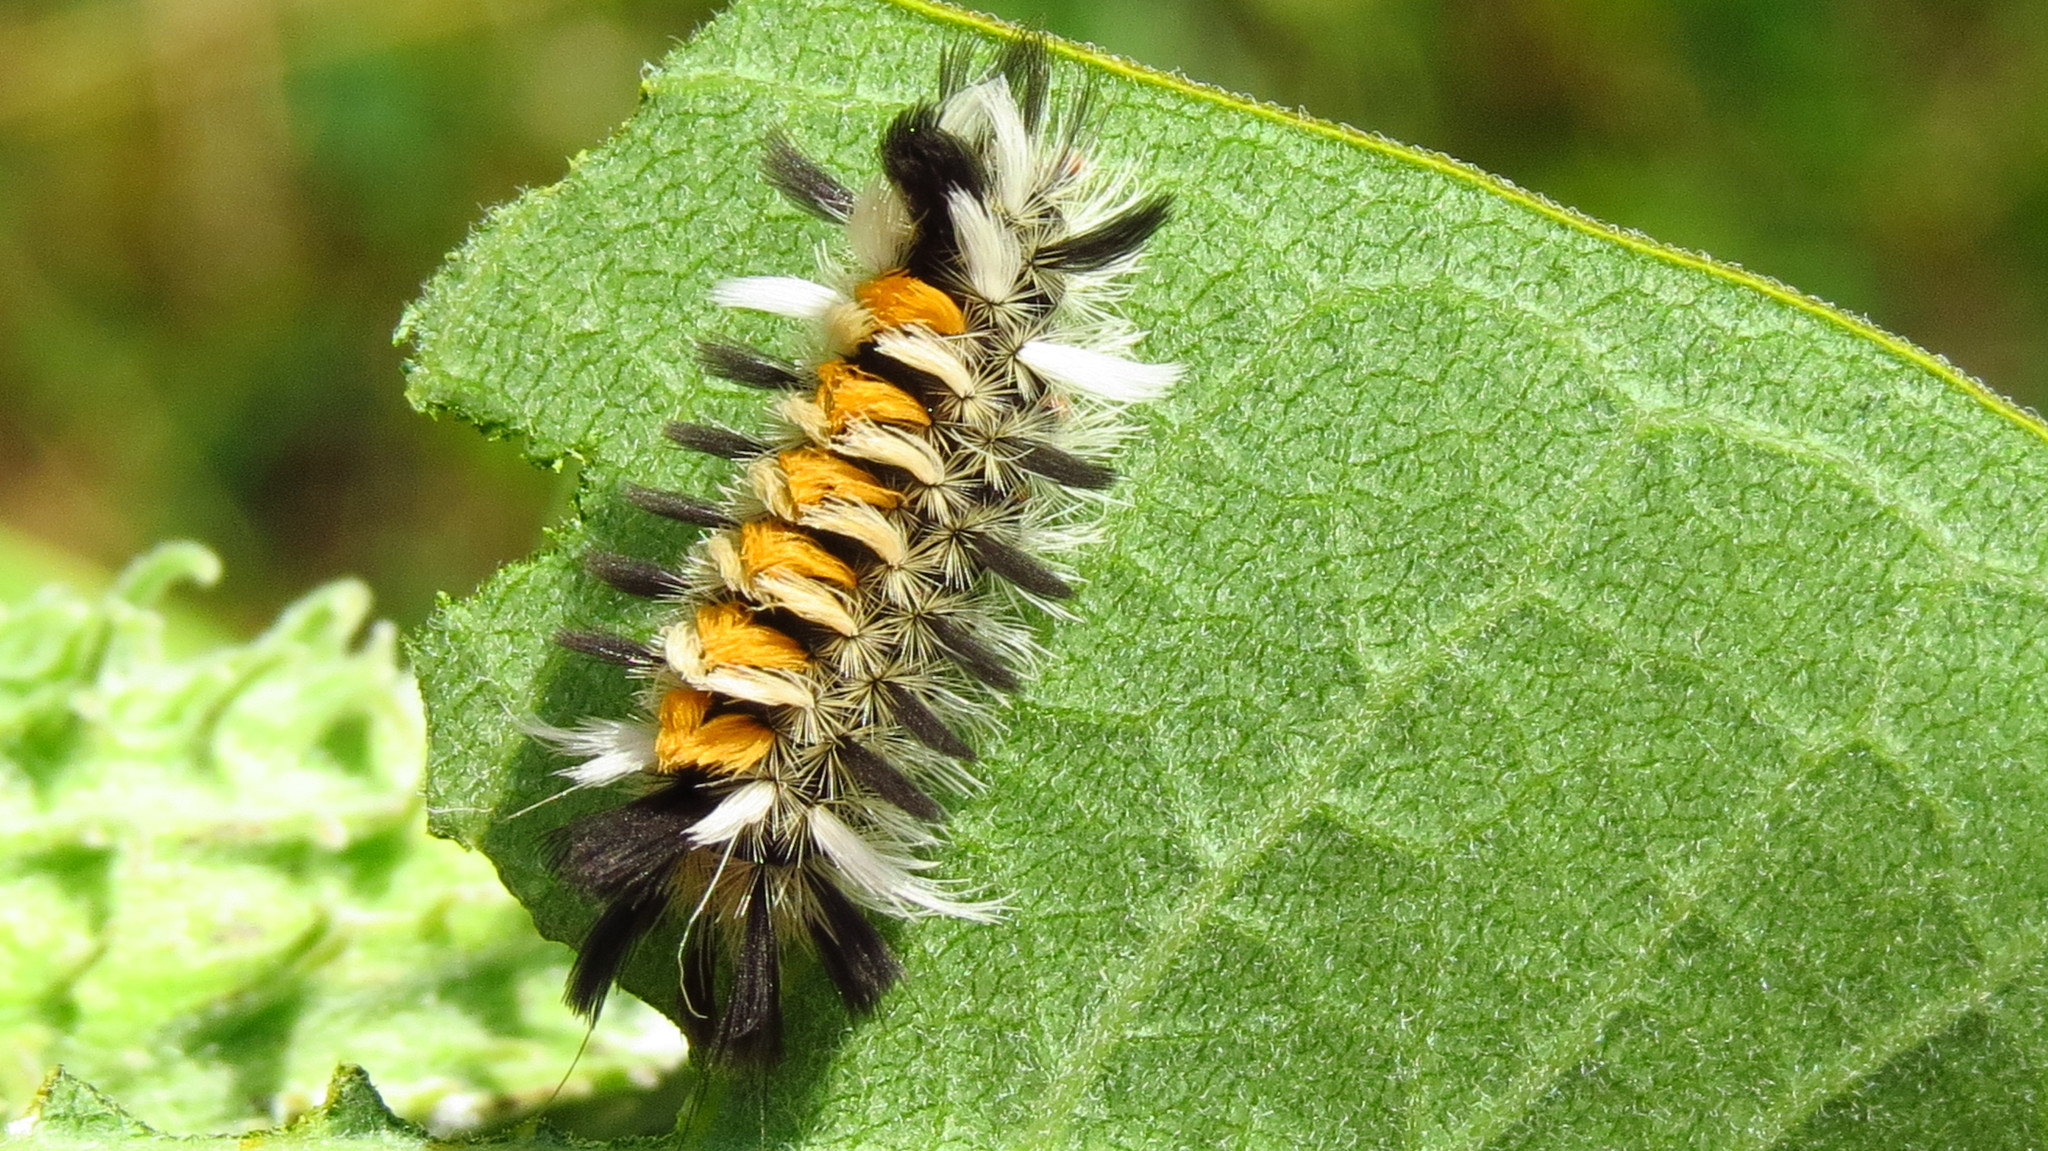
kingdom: Animalia
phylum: Arthropoda
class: Insecta
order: Lepidoptera
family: Erebidae
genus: Euchaetes
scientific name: Euchaetes egle
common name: Milkweed tussock moth
